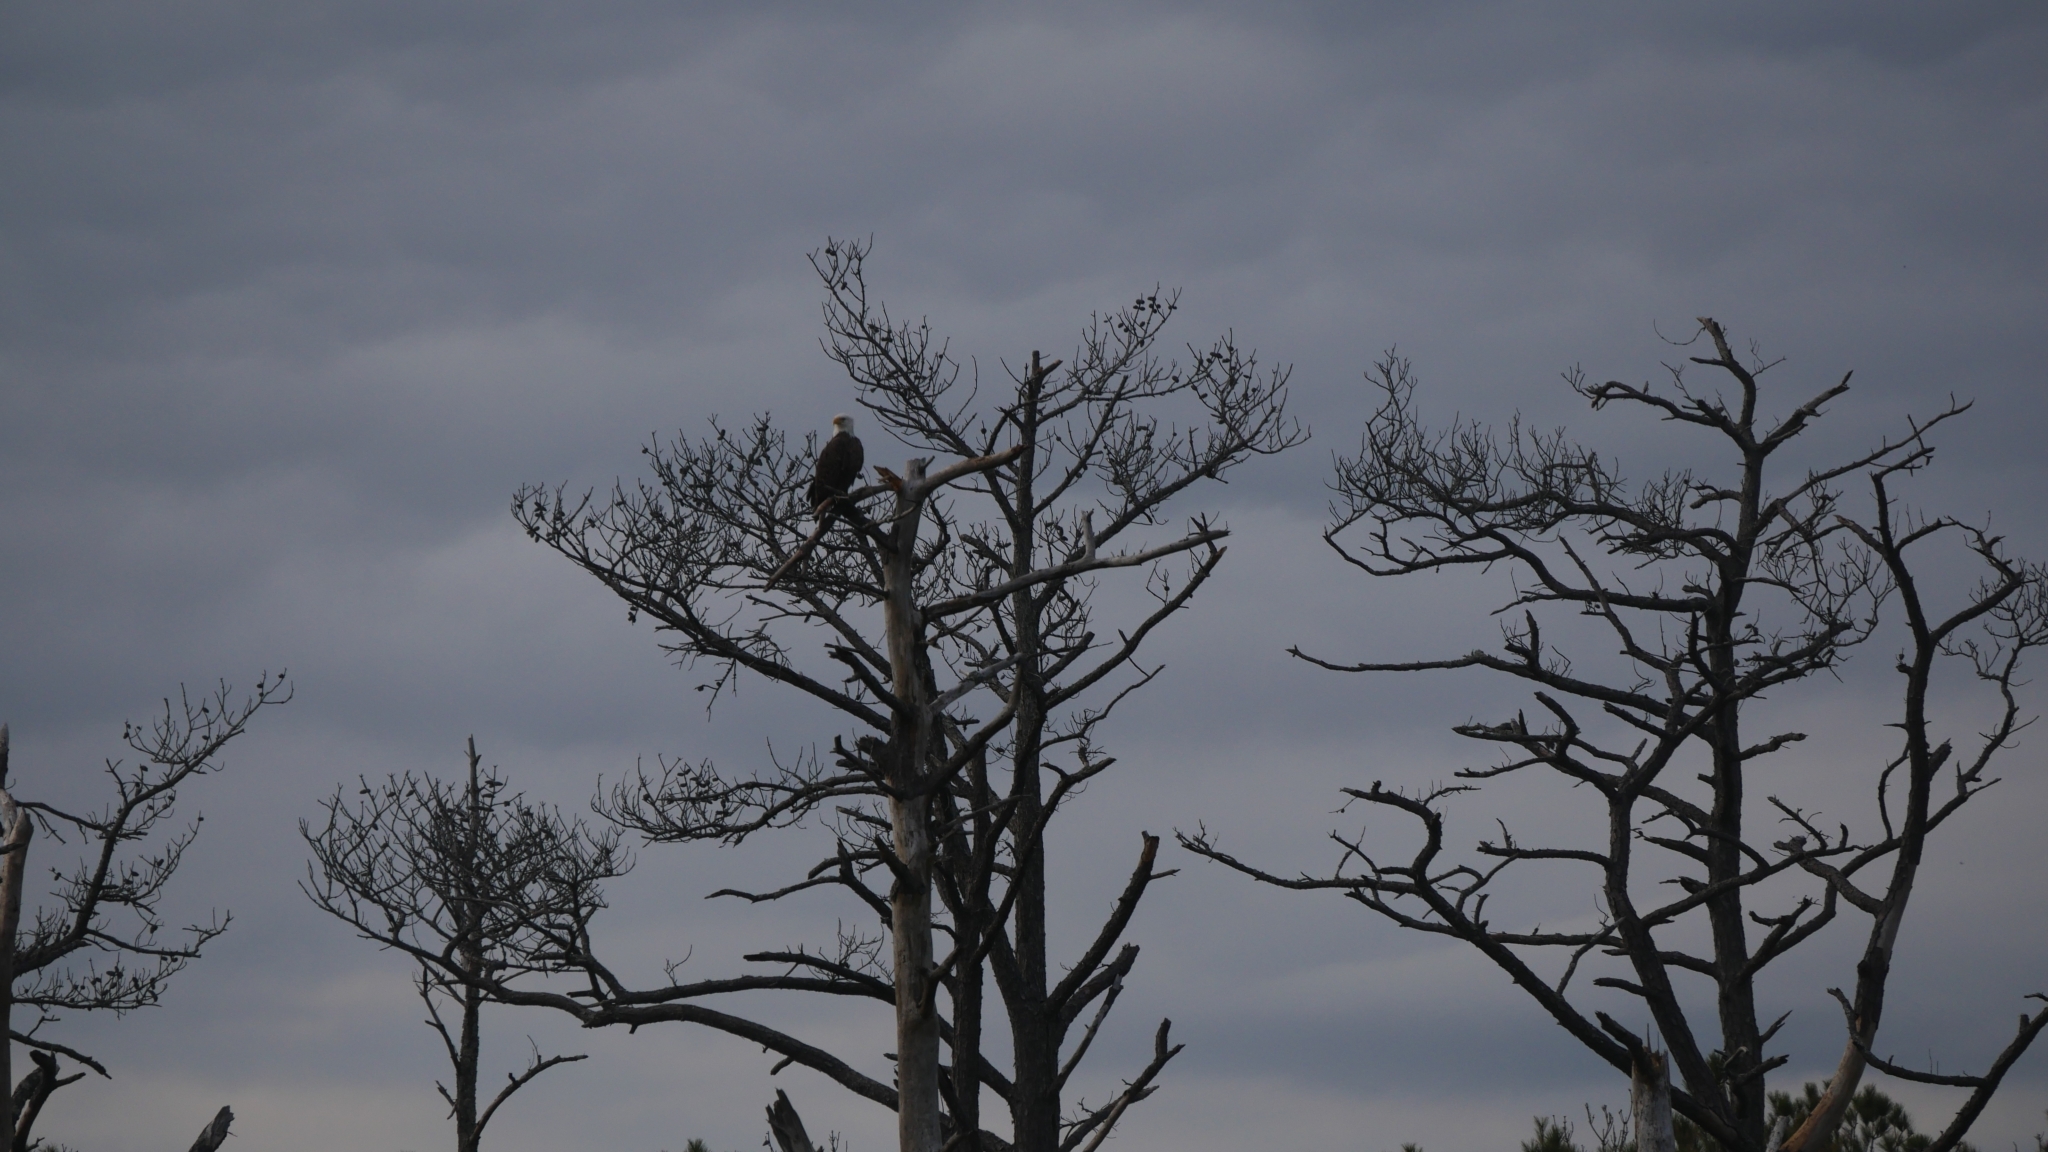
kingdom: Animalia
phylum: Chordata
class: Aves
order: Accipitriformes
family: Accipitridae
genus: Haliaeetus
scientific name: Haliaeetus leucocephalus
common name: Bald eagle
